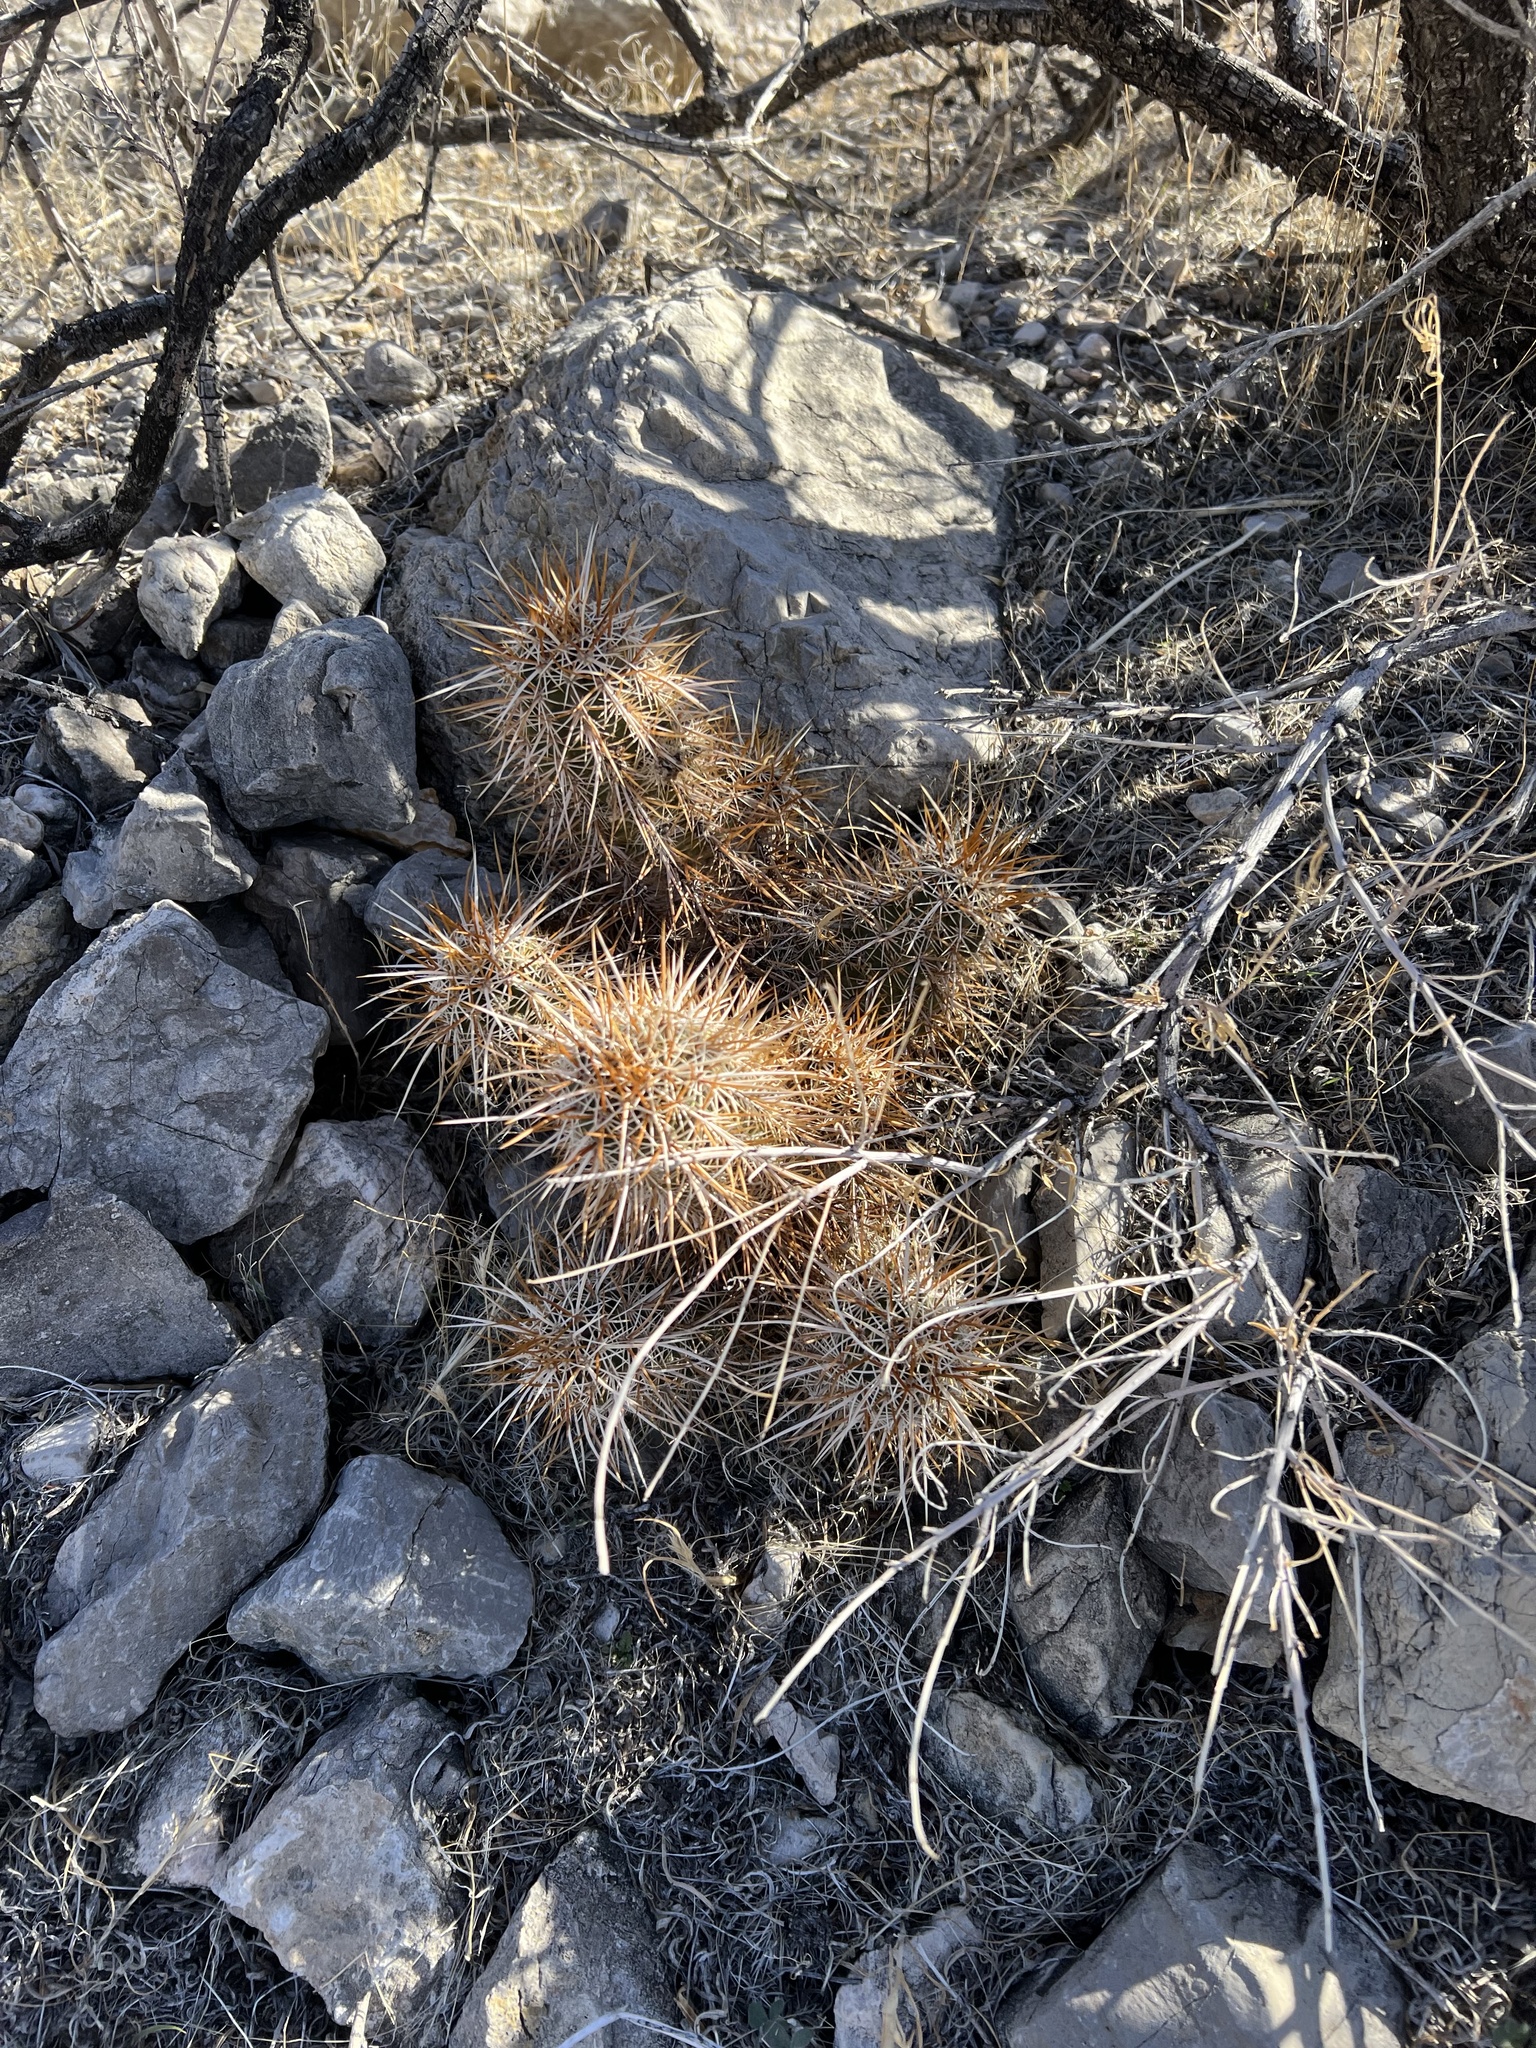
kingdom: Plantae
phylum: Tracheophyta
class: Magnoliopsida
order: Caryophyllales
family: Cactaceae
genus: Echinocereus
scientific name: Echinocereus engelmannii
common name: Engelmann's hedgehog cactus
